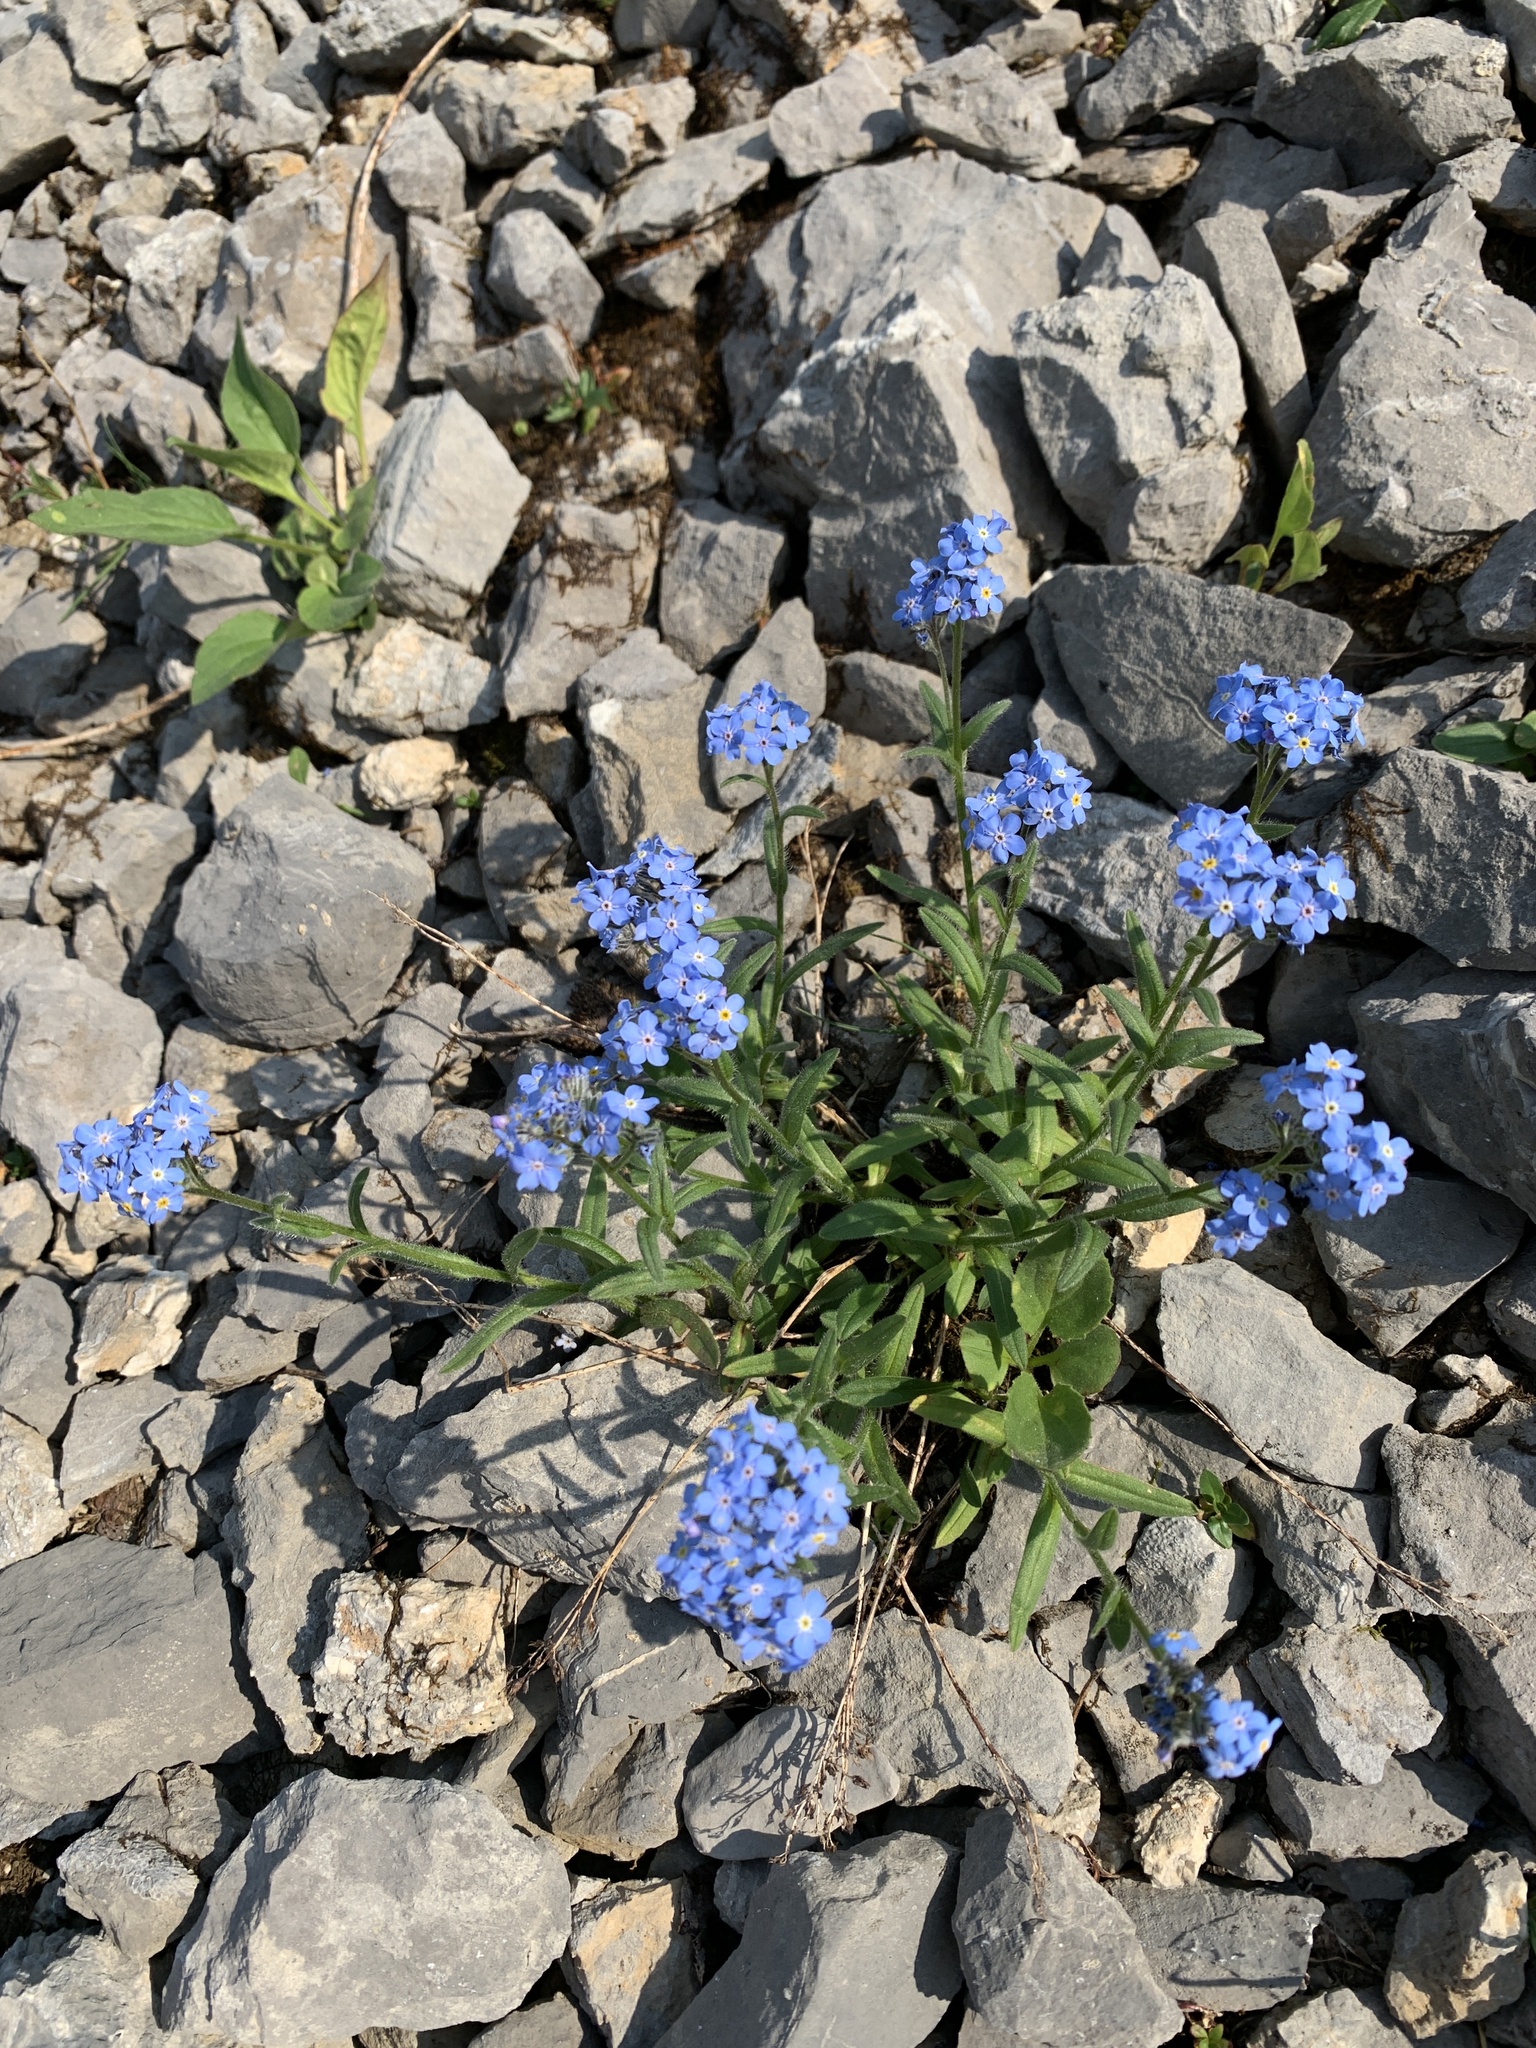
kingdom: Plantae
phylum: Tracheophyta
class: Magnoliopsida
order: Boraginales
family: Boraginaceae
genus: Myosotis
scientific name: Myosotis asiatica
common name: Asian forget-me-not
